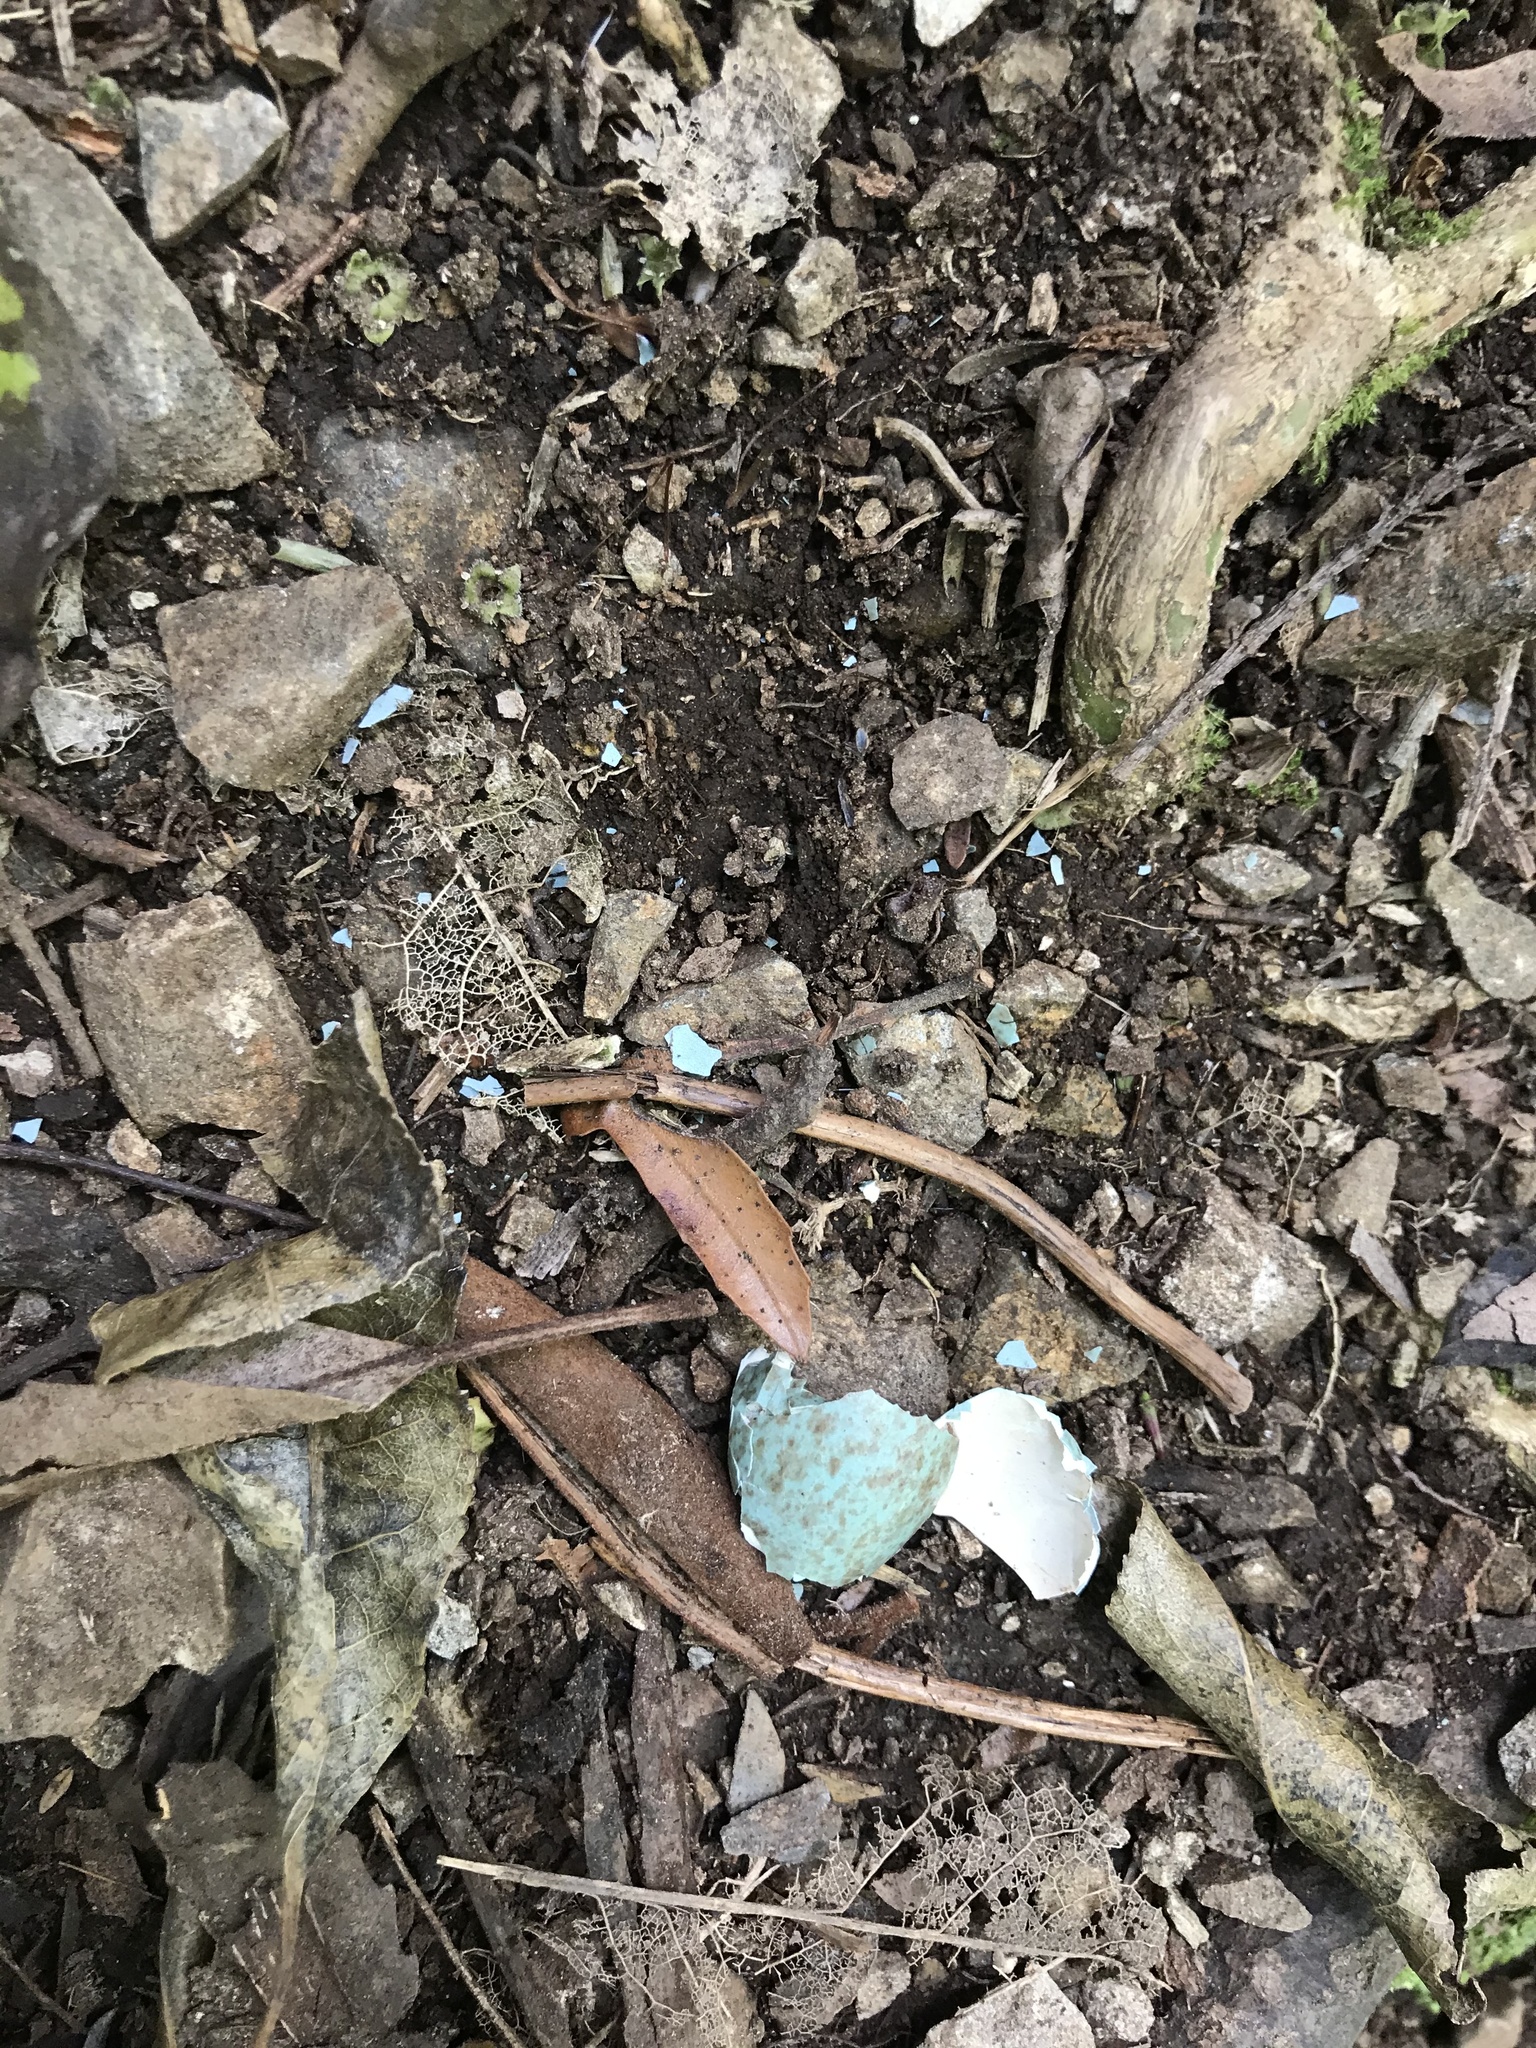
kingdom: Animalia
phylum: Chordata
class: Aves
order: Passeriformes
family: Turdidae
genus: Turdus
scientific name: Turdus merula
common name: Common blackbird
